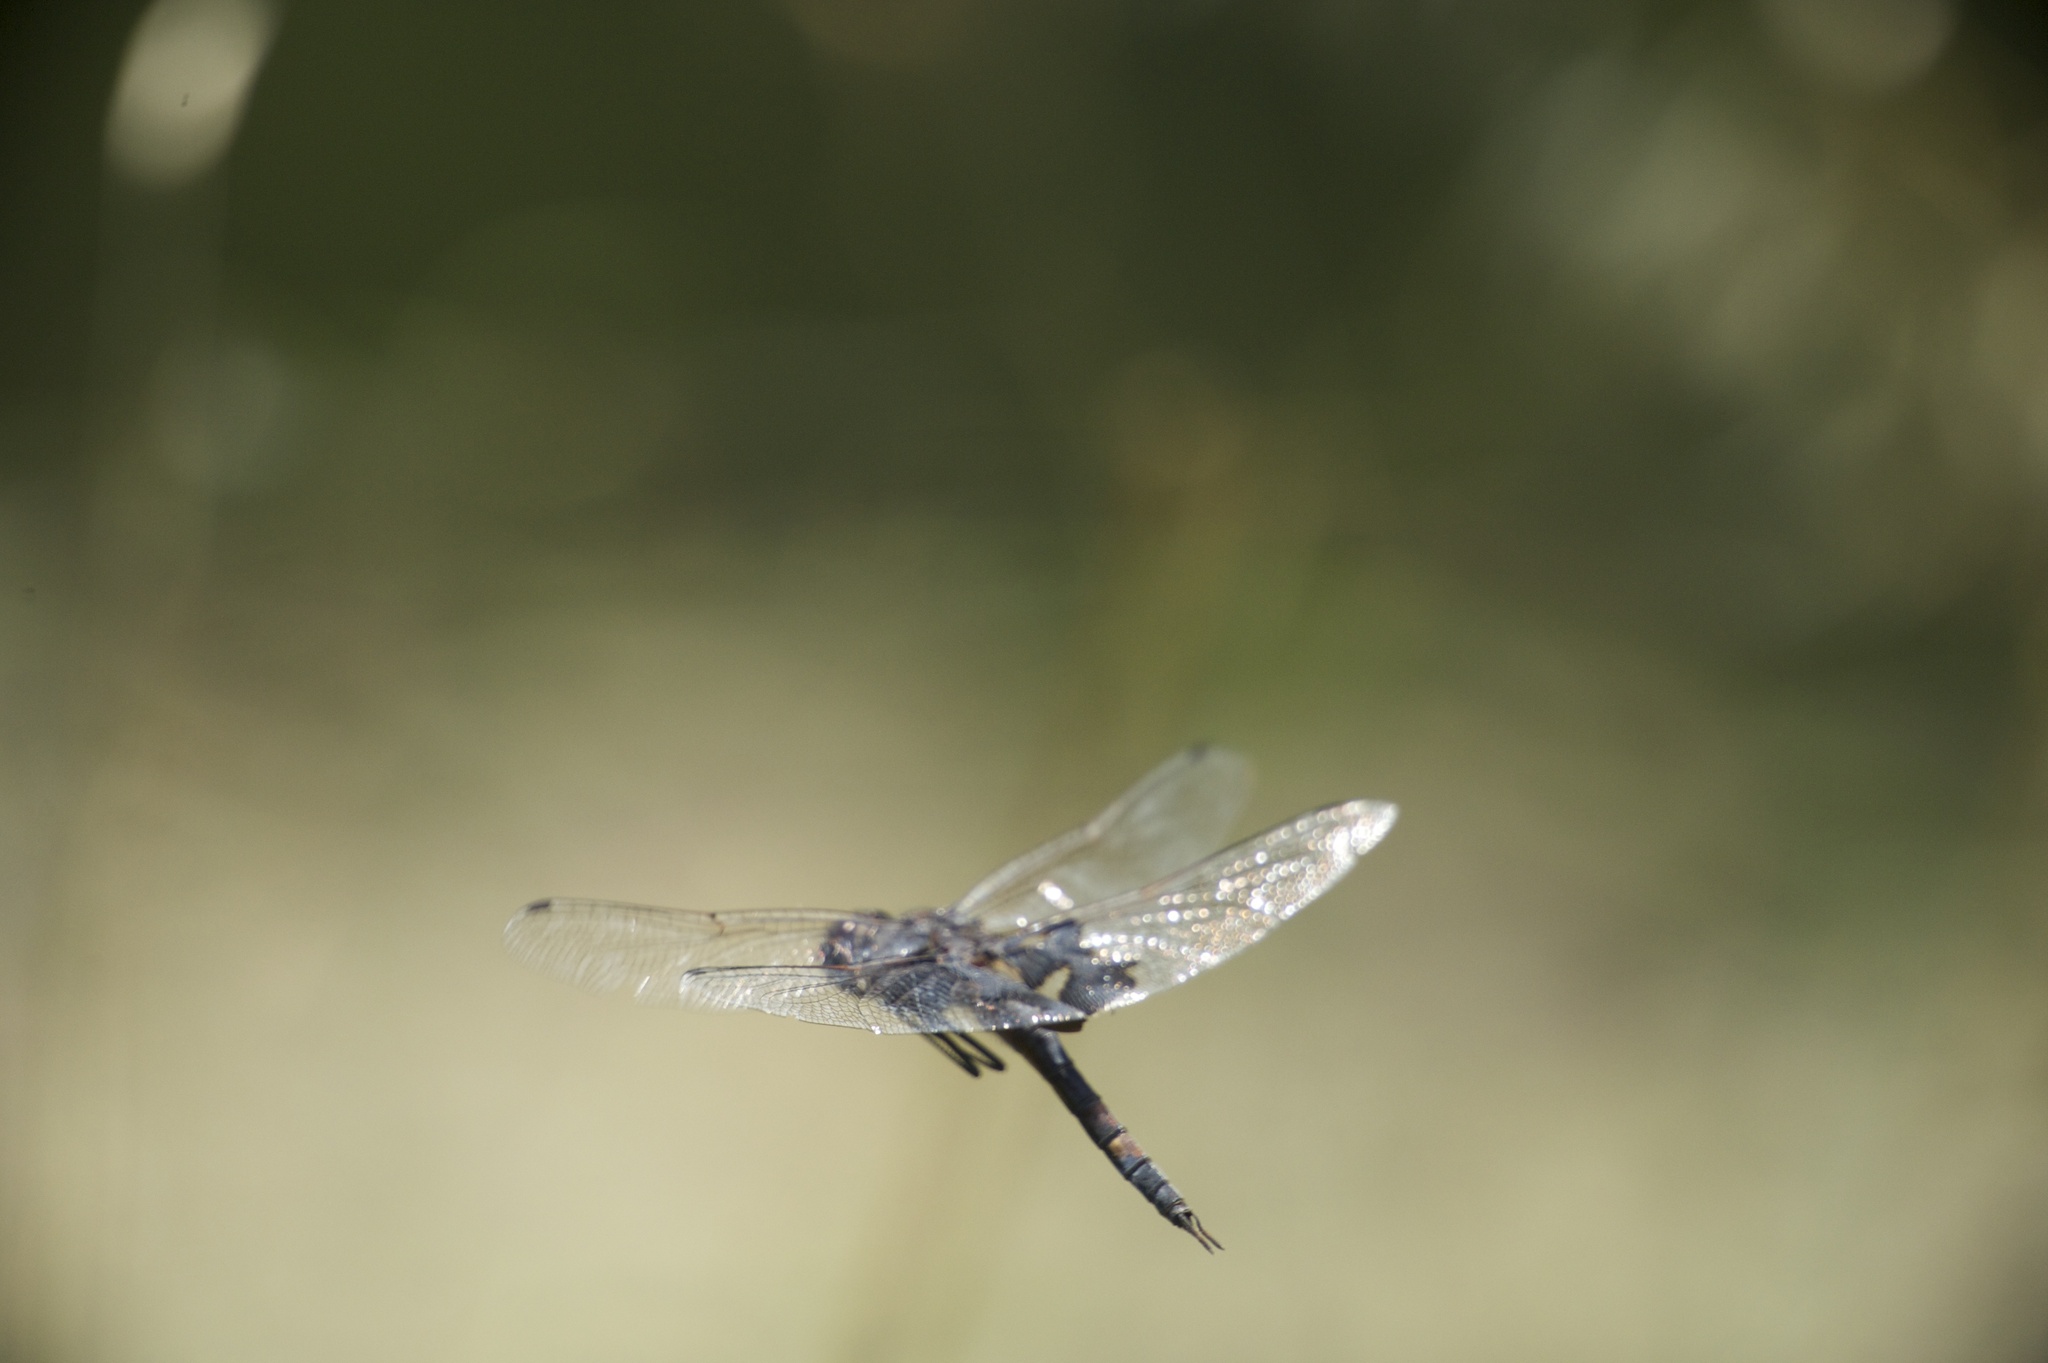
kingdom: Animalia
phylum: Arthropoda
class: Insecta
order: Odonata
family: Libellulidae
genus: Tramea
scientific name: Tramea lacerata
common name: Black saddlebags
